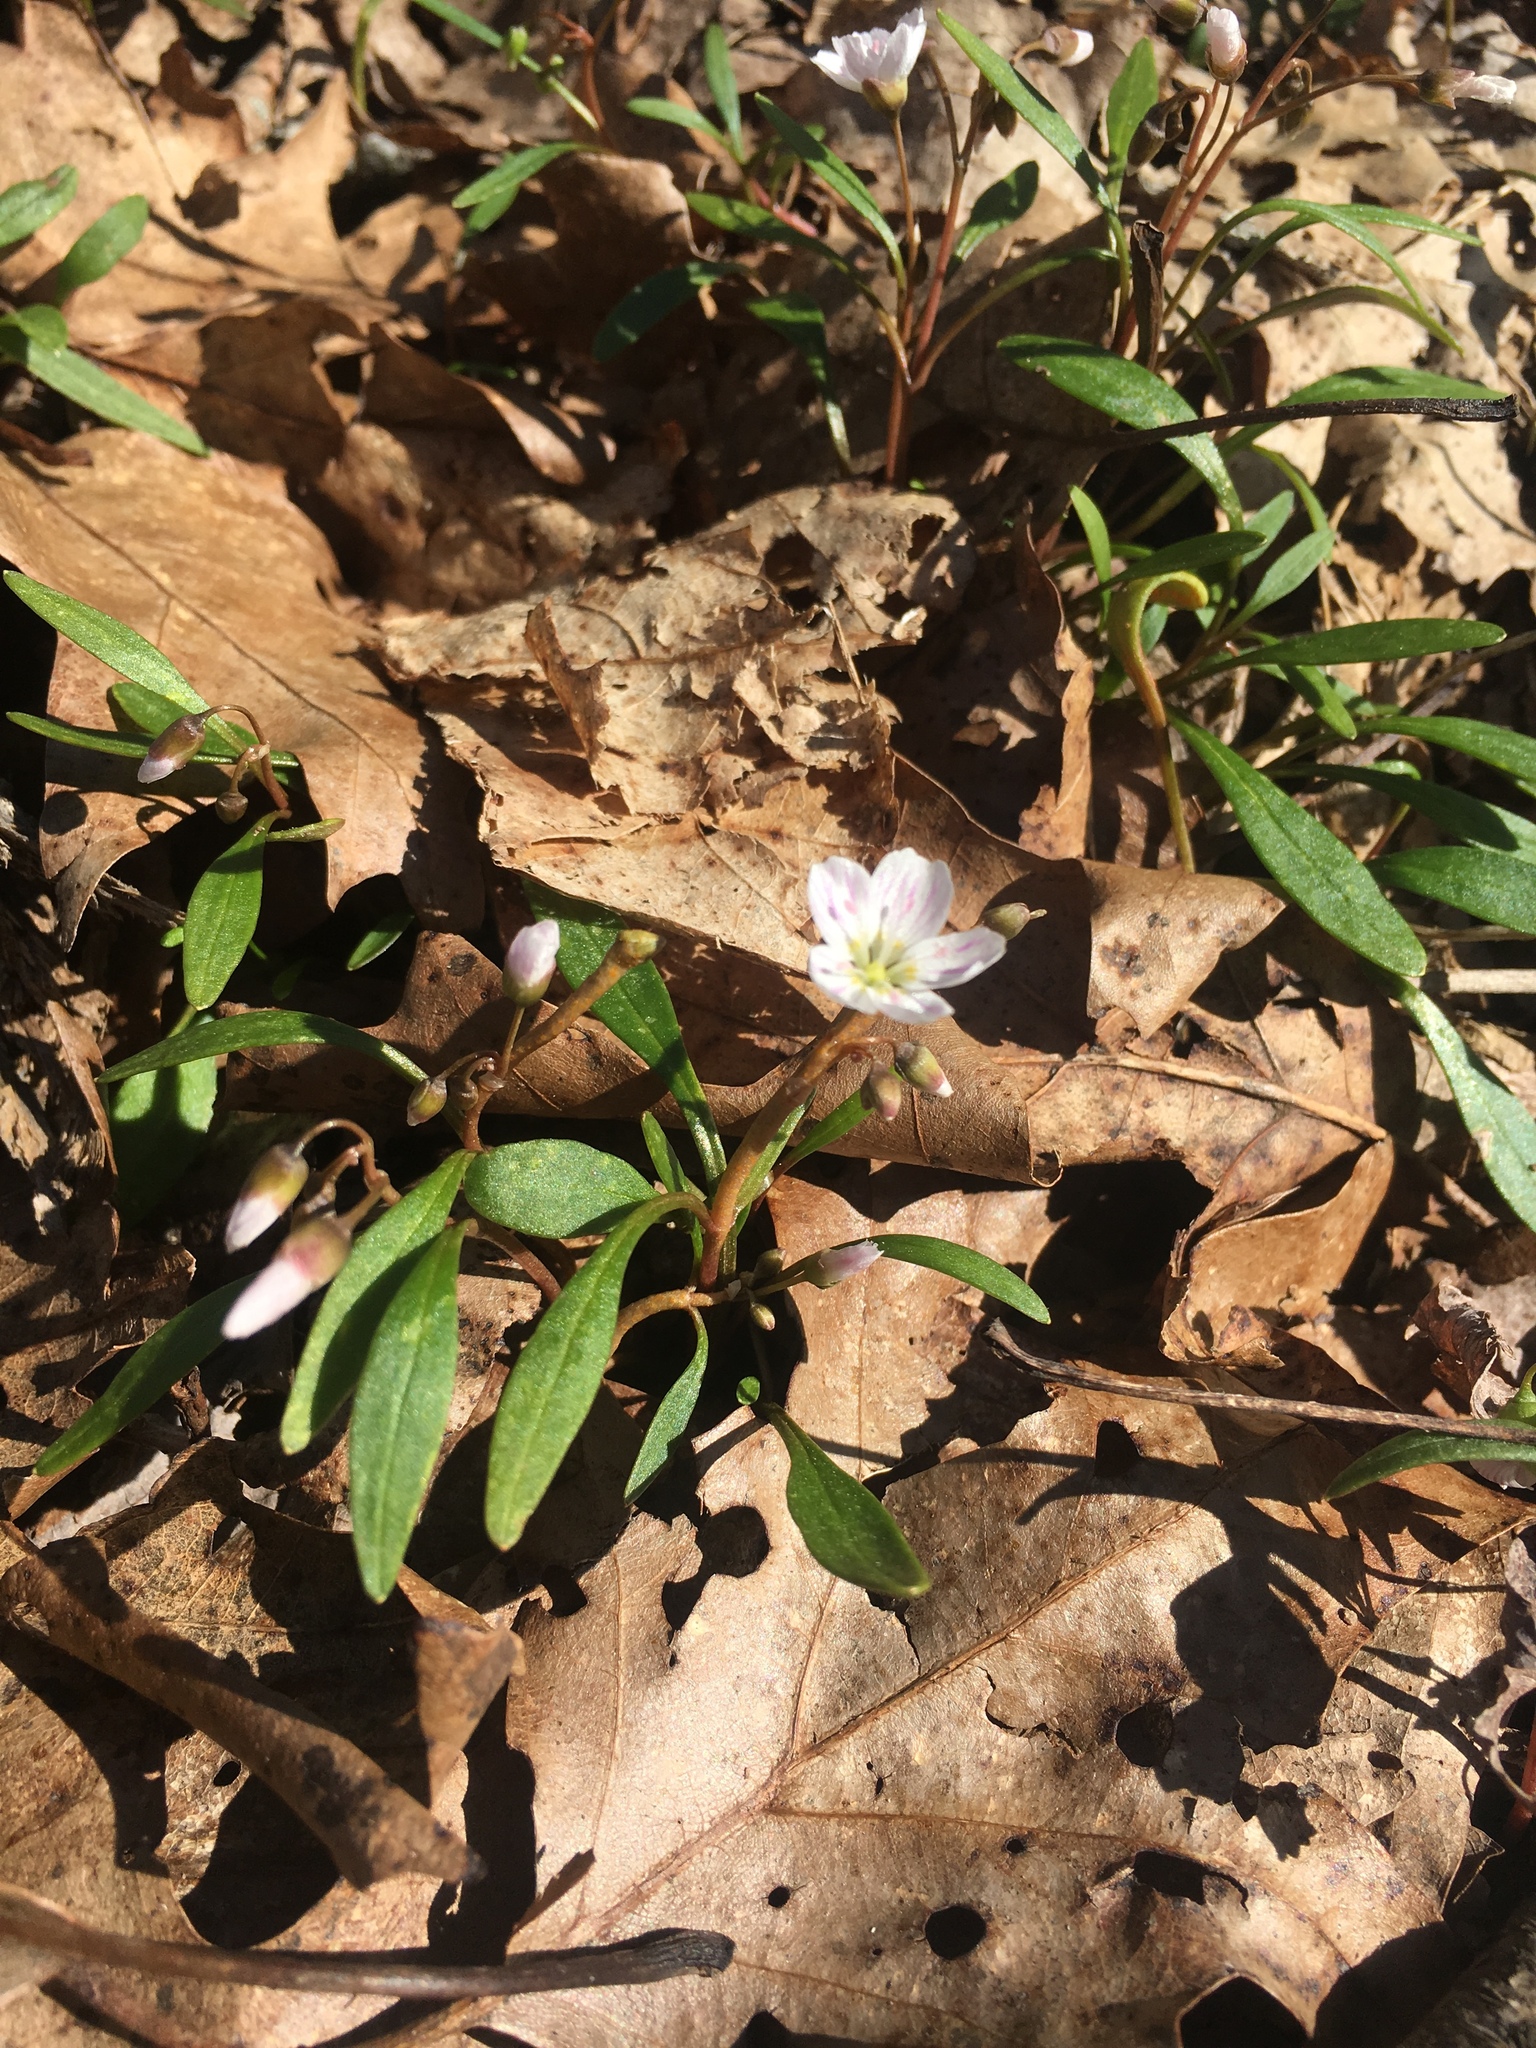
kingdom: Plantae
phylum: Tracheophyta
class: Magnoliopsida
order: Caryophyllales
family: Montiaceae
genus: Claytonia
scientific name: Claytonia caroliniana
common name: Carolina spring beauty
